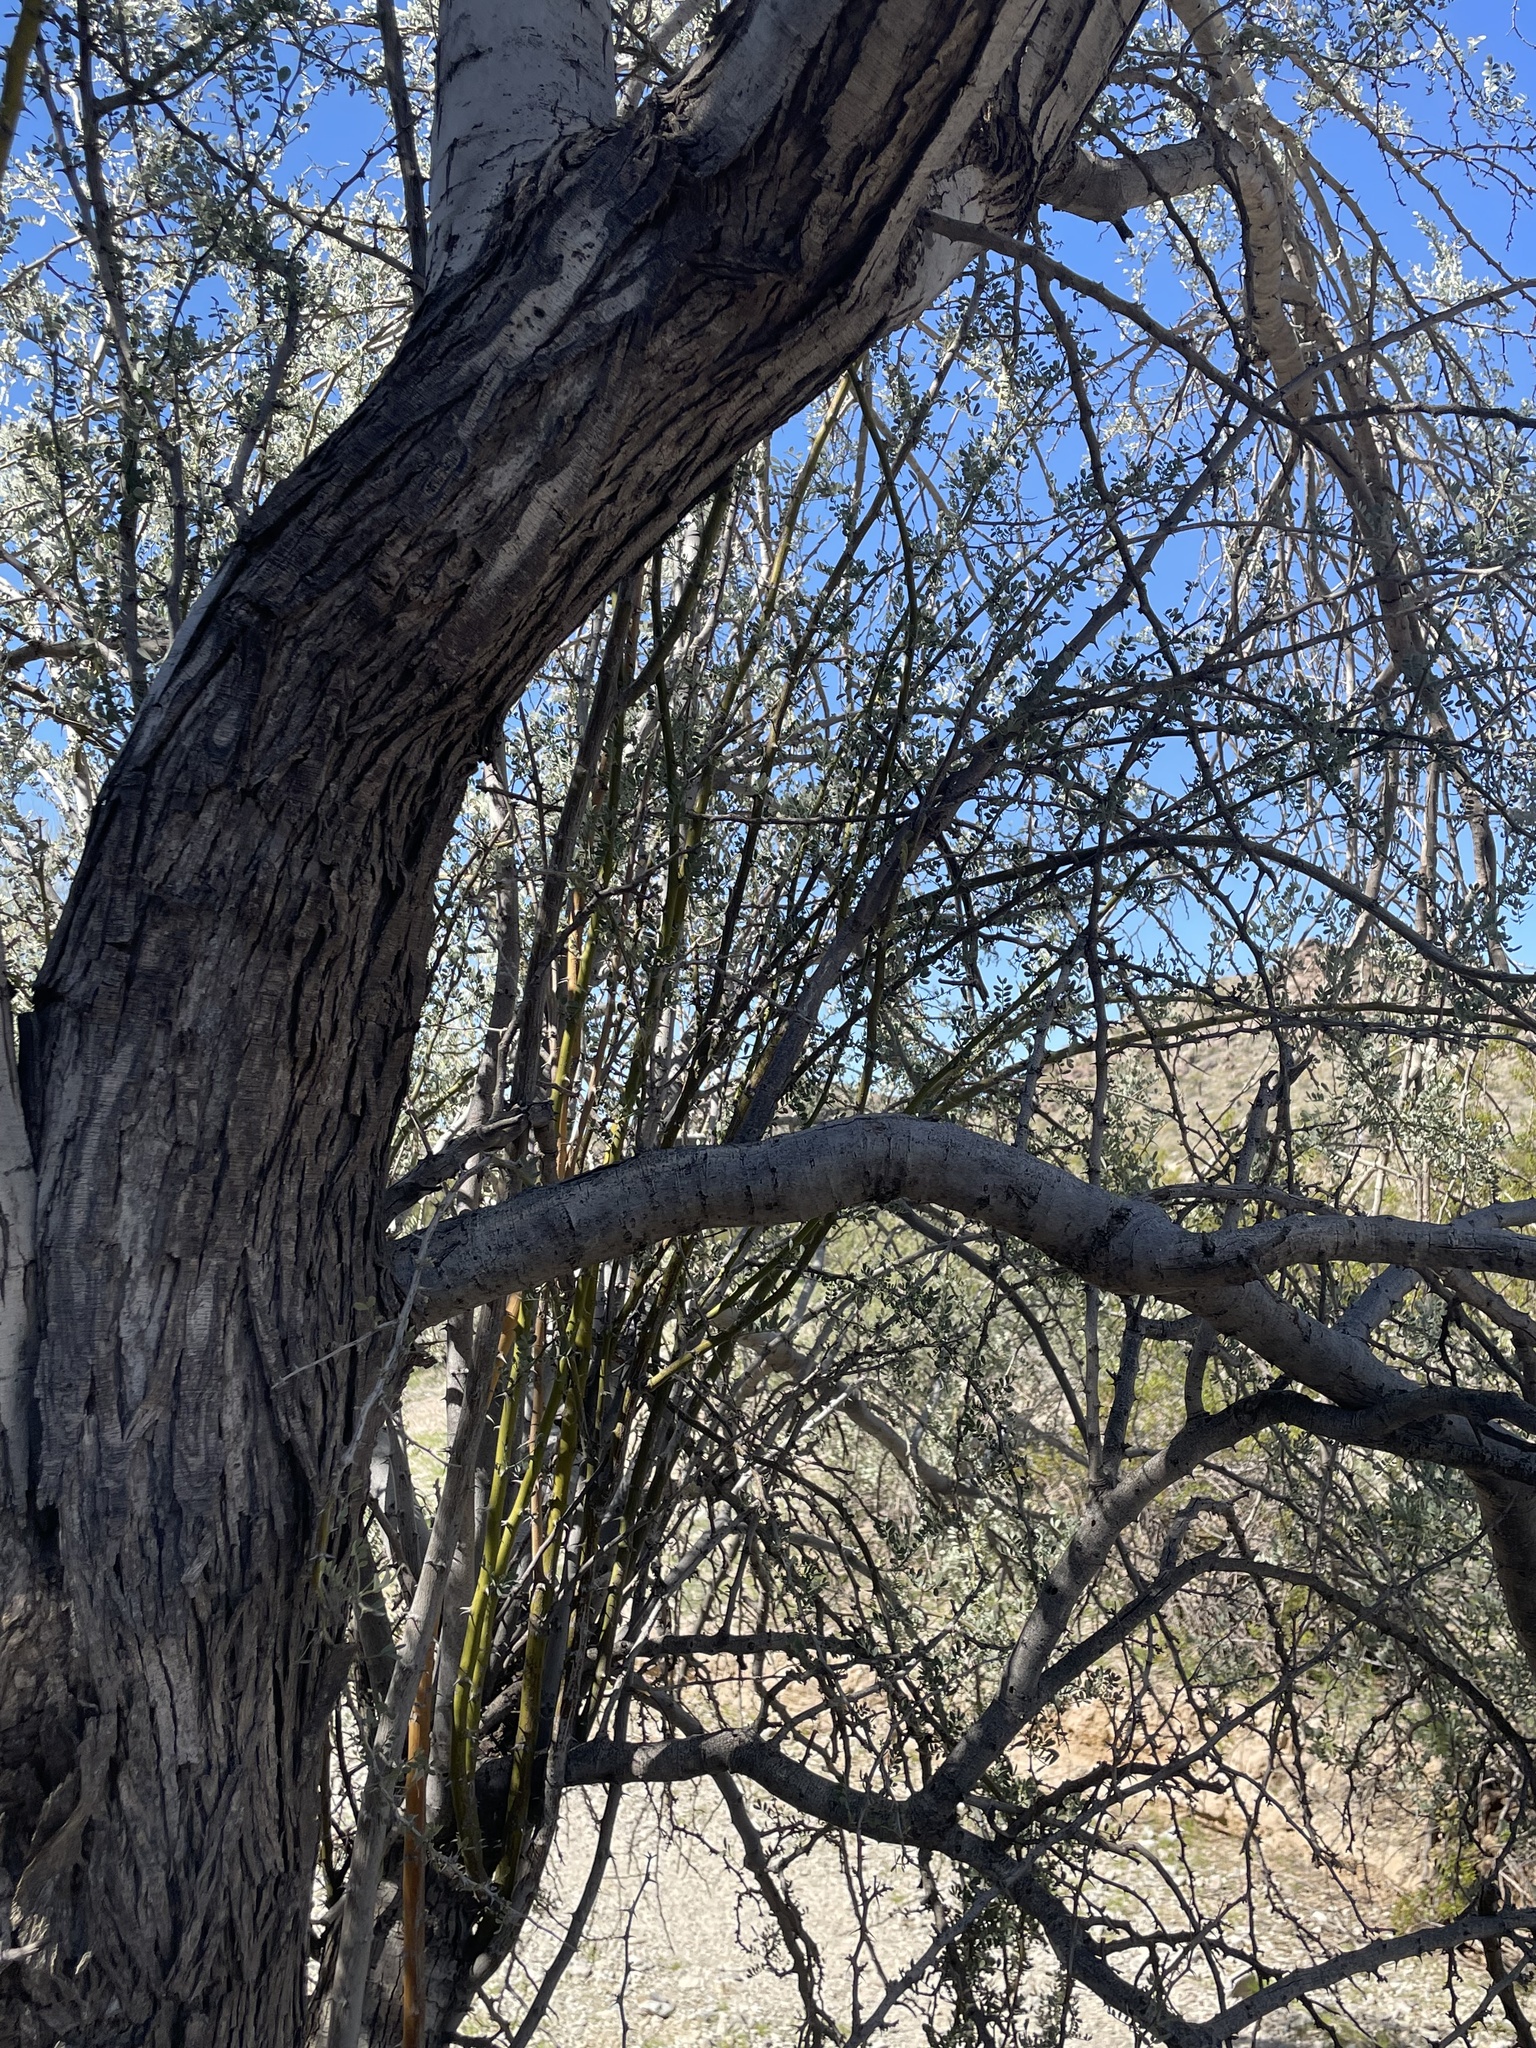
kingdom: Plantae
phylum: Tracheophyta
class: Magnoliopsida
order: Fabales
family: Fabaceae
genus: Olneya
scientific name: Olneya tesota
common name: Desert ironwood
